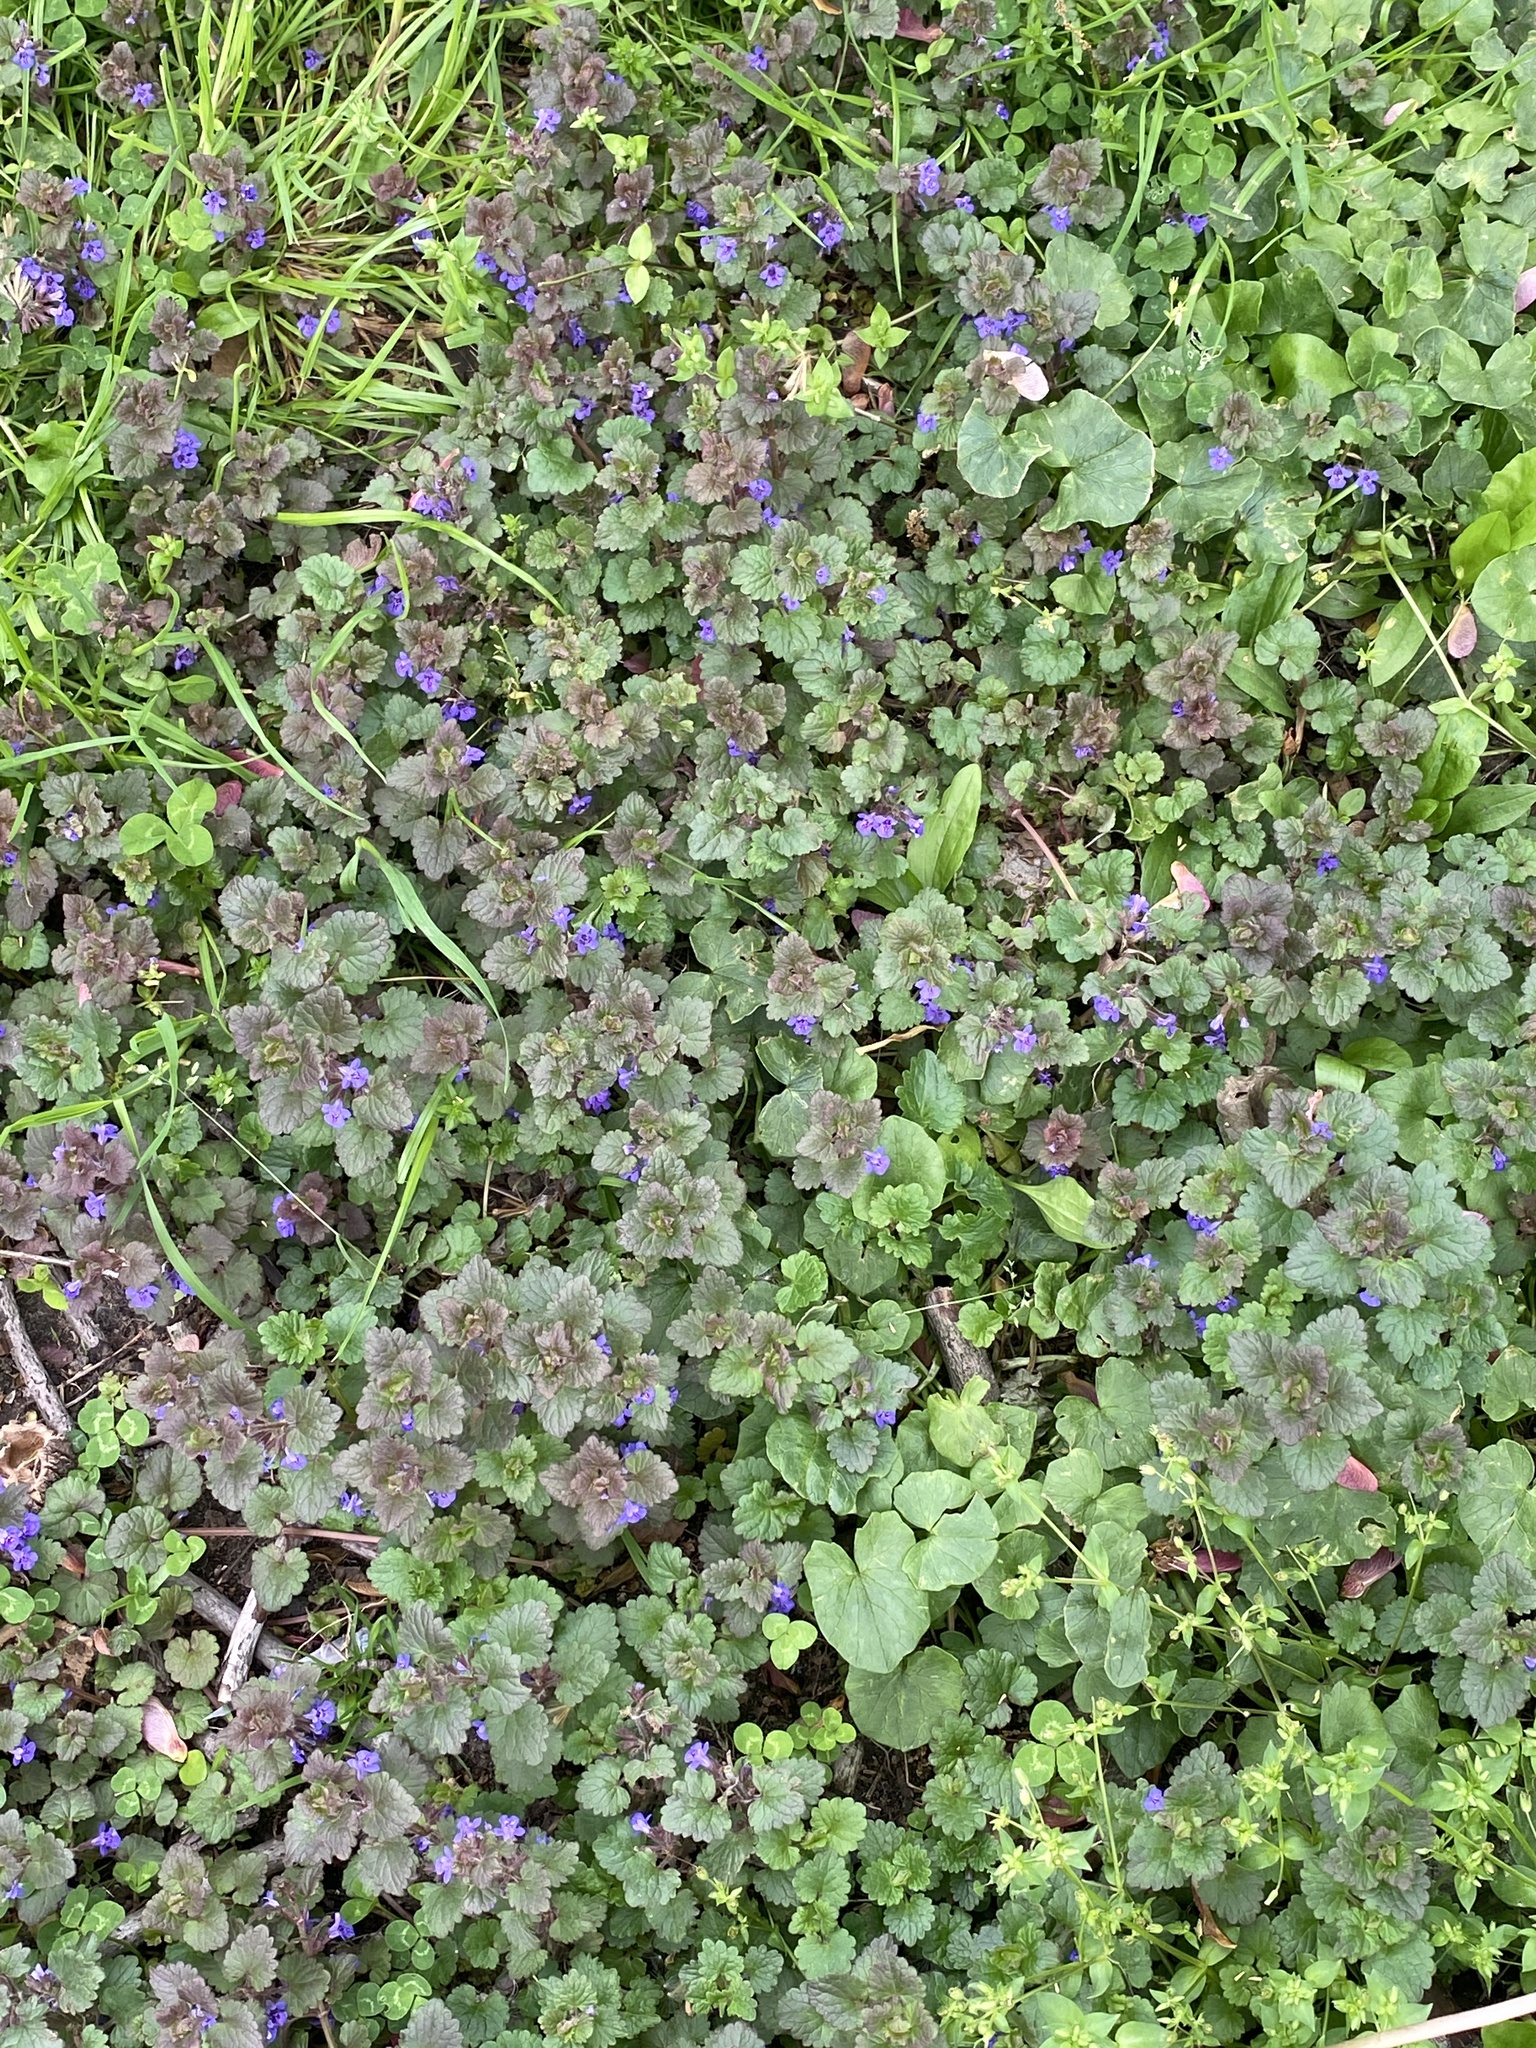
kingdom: Plantae
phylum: Tracheophyta
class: Magnoliopsida
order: Lamiales
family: Lamiaceae
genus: Glechoma
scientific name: Glechoma hederacea
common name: Ground ivy
